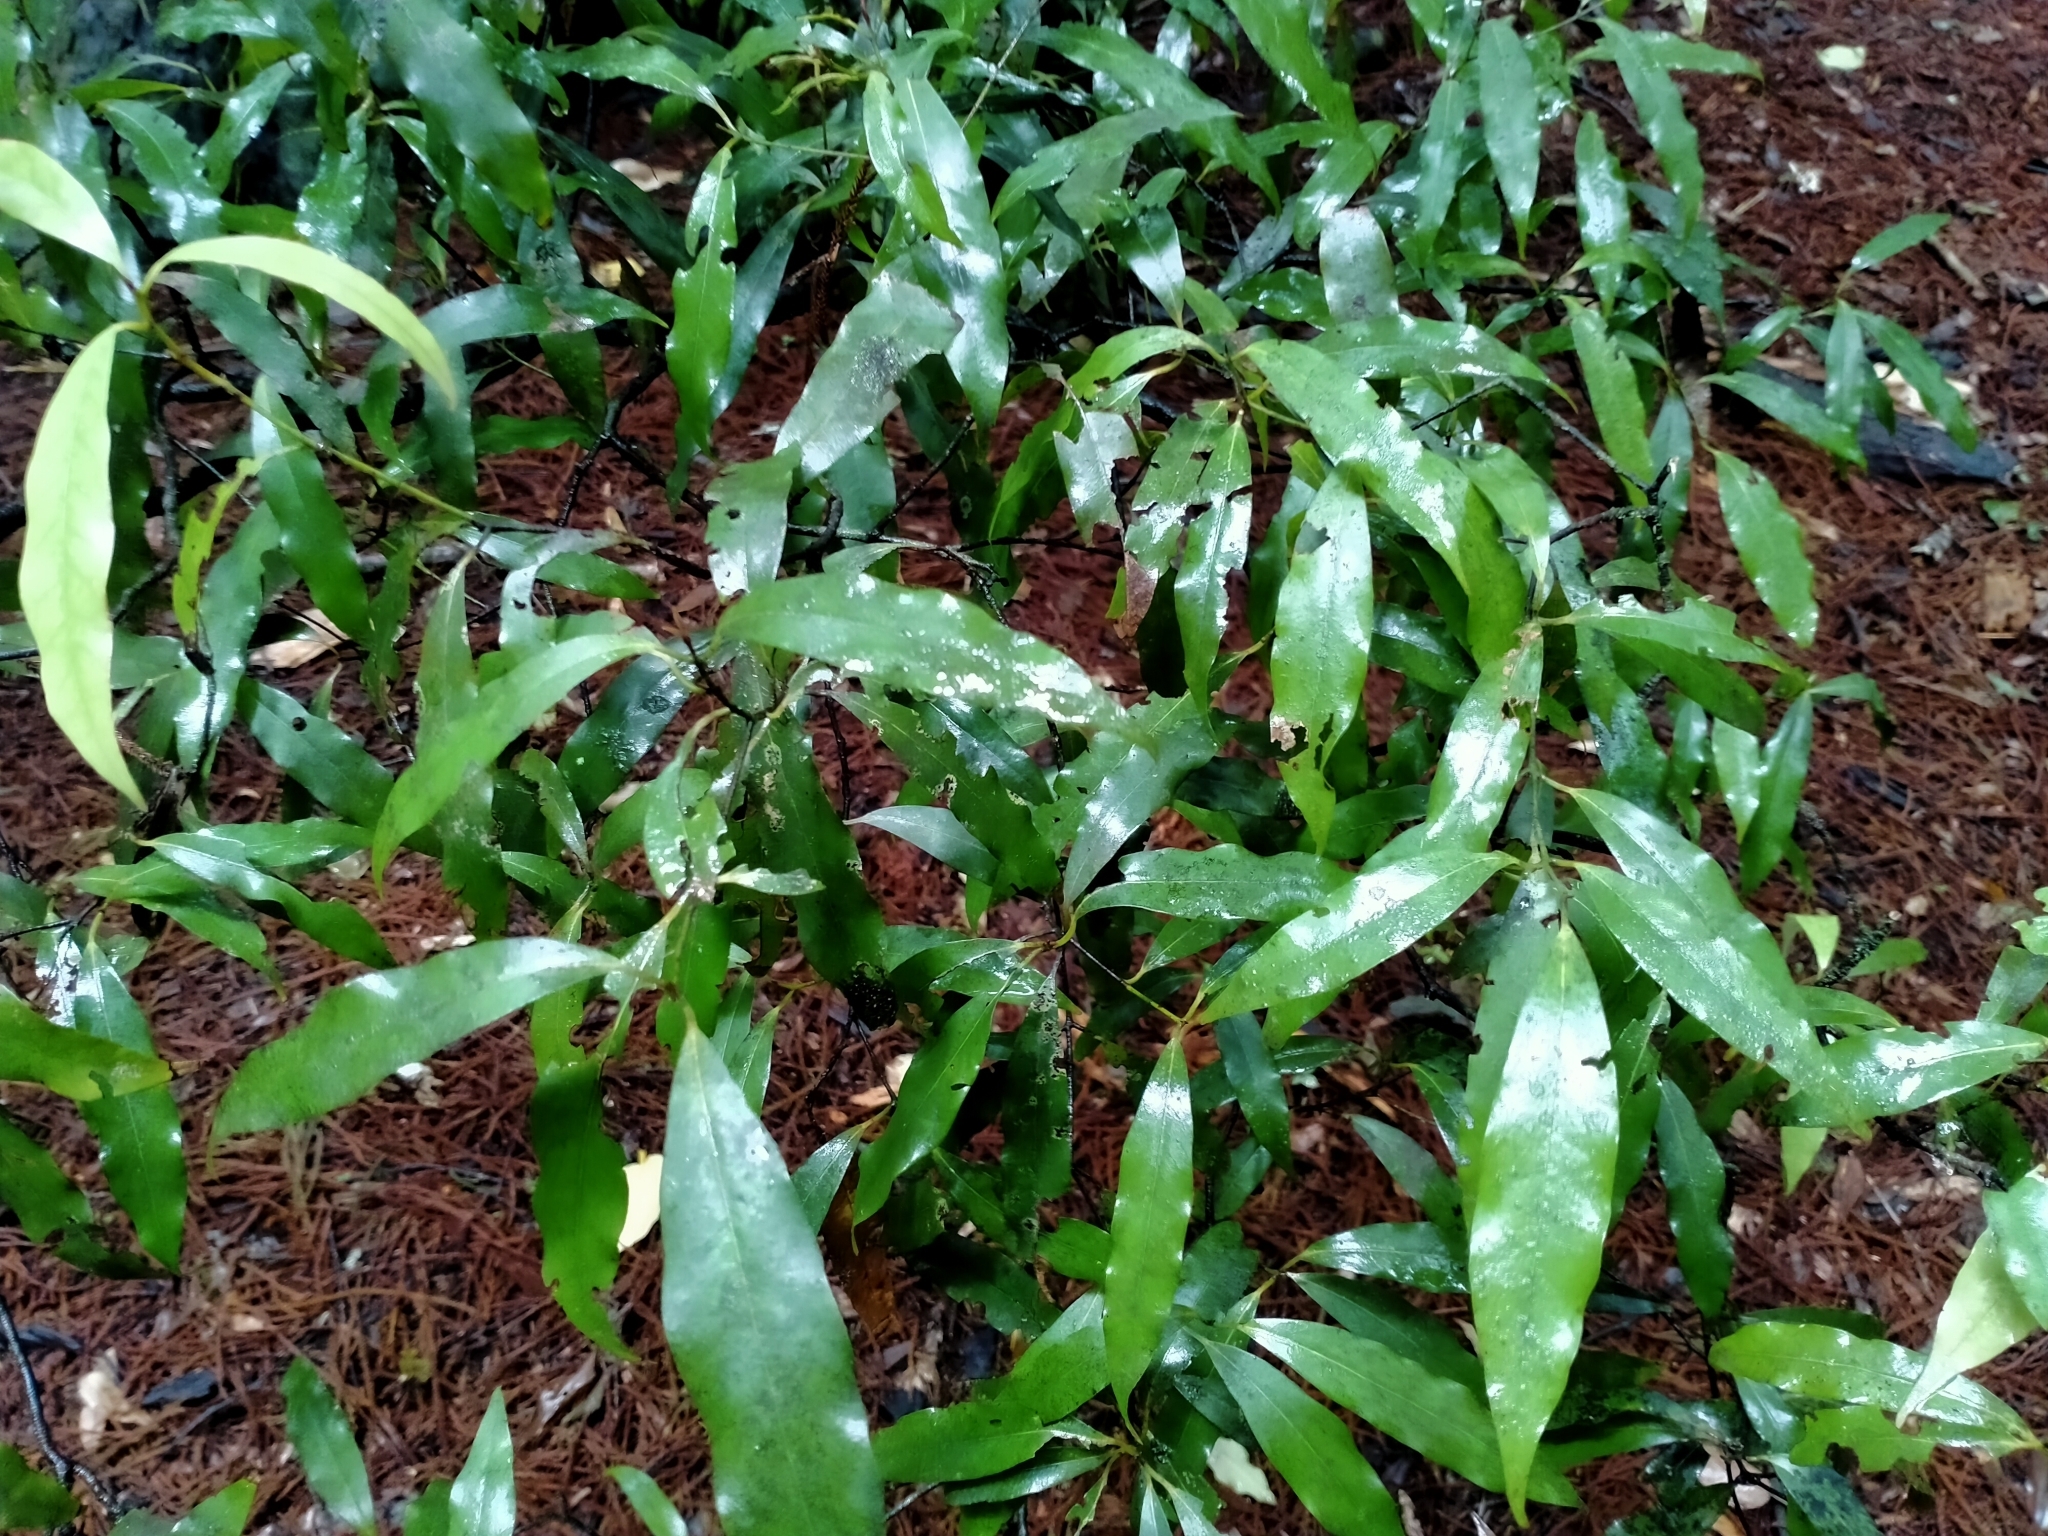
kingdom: Plantae
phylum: Tracheophyta
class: Magnoliopsida
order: Laurales
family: Lauraceae
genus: Beilschmiedia
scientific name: Beilschmiedia tawa
